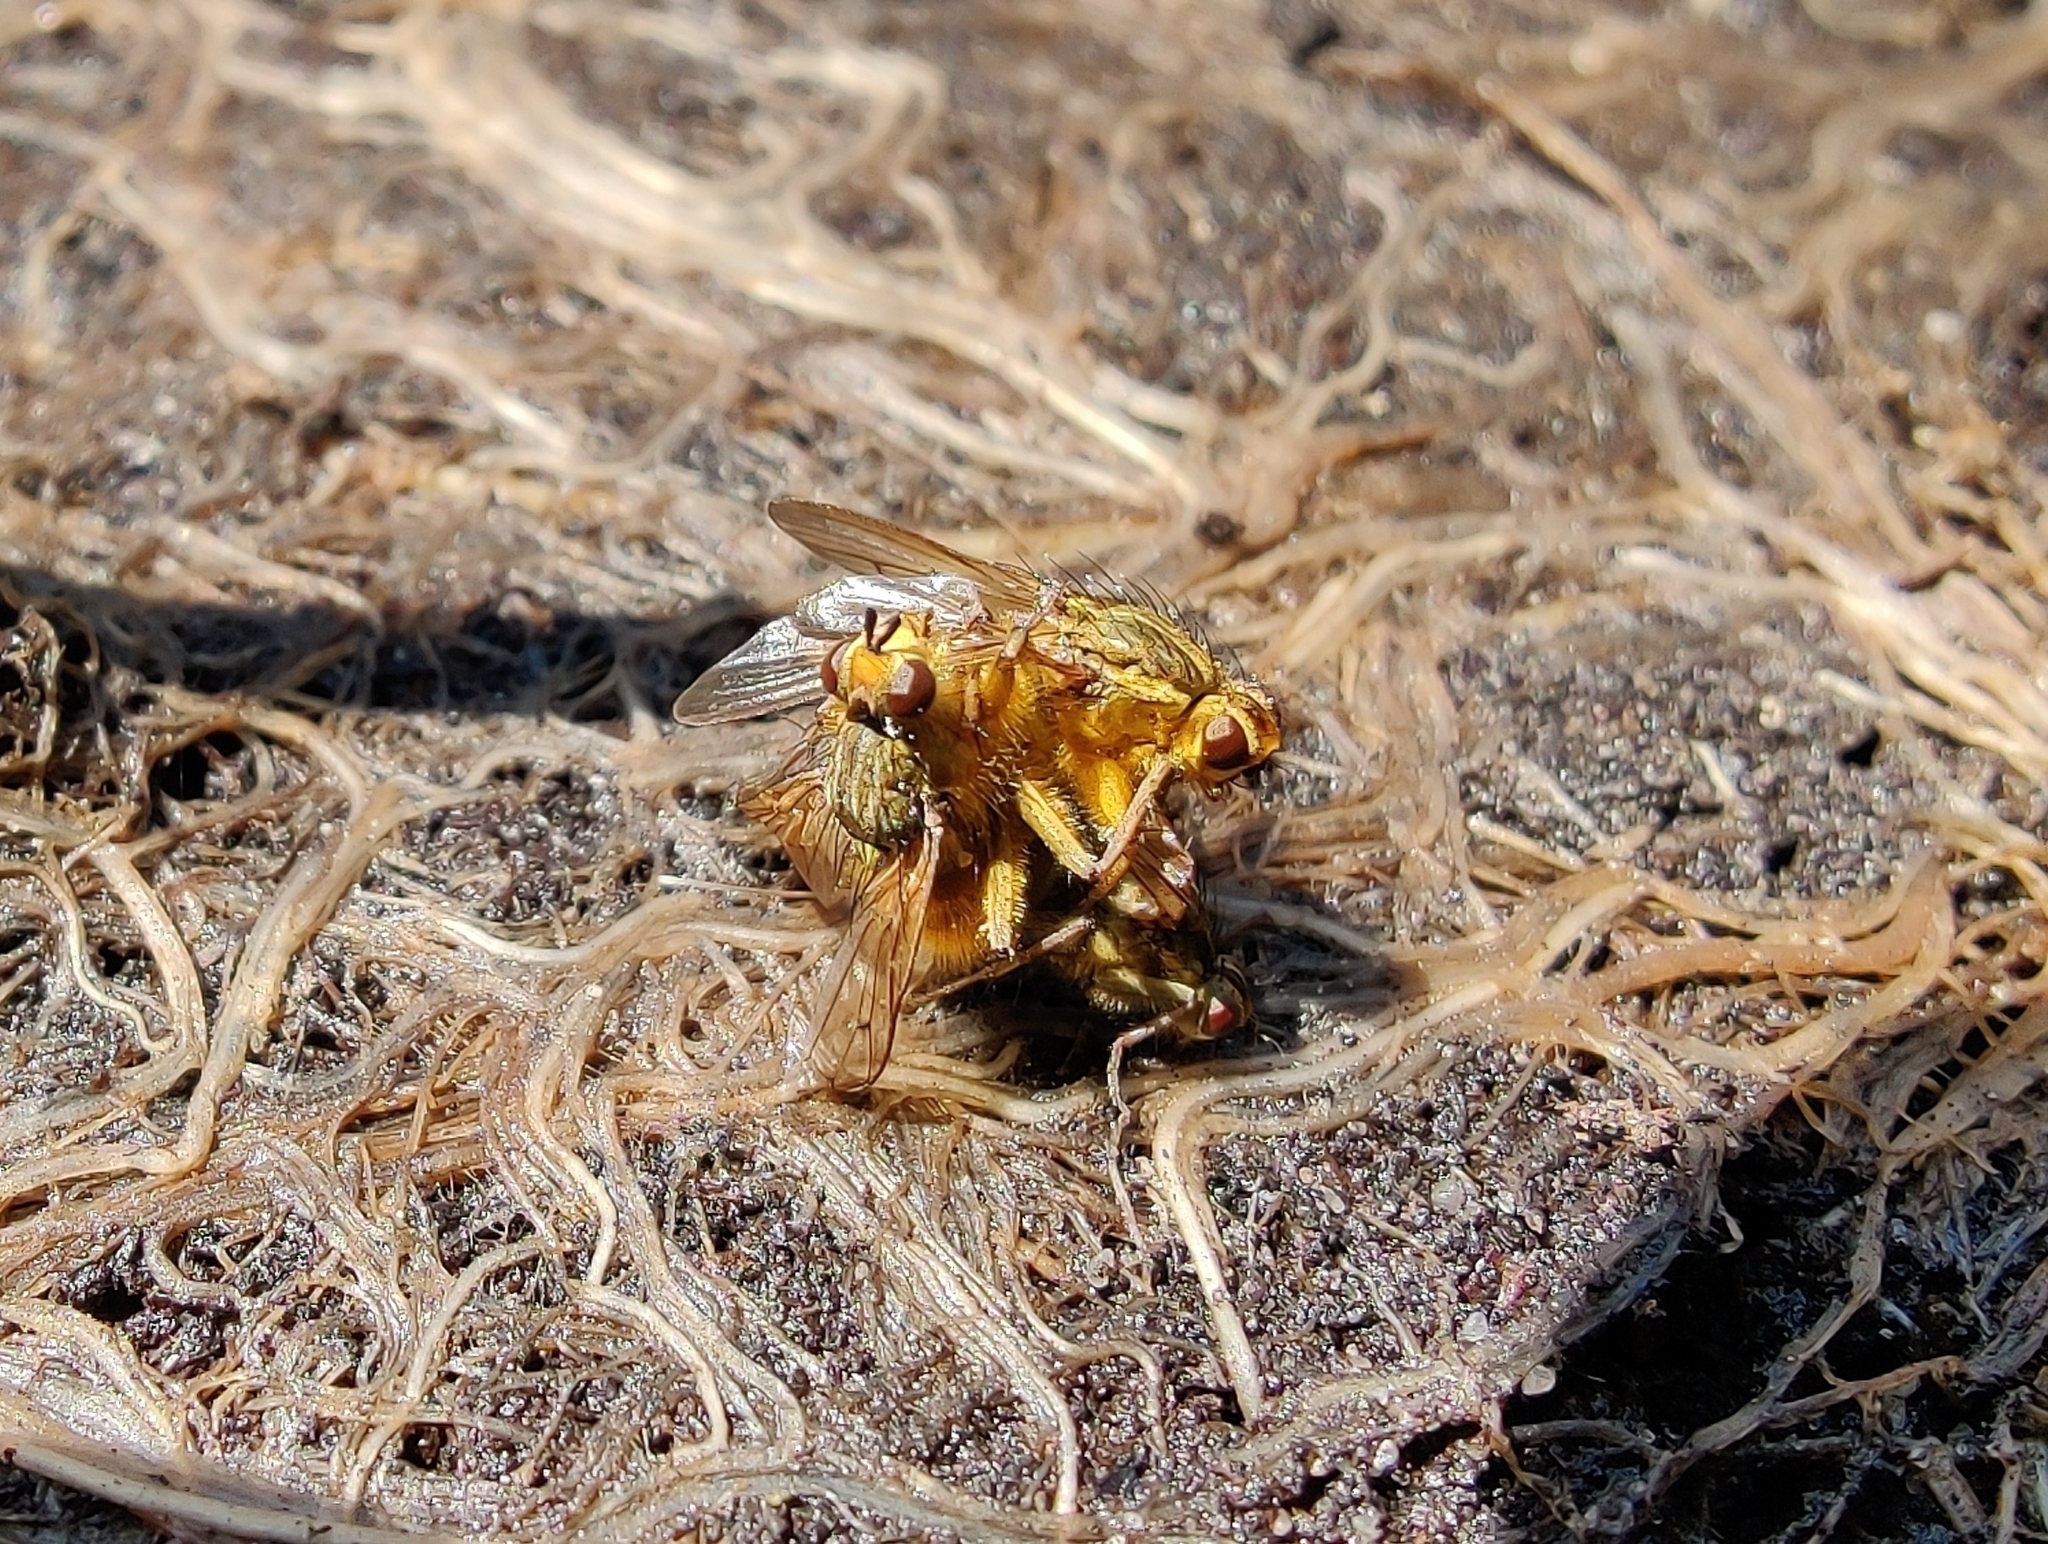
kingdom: Animalia
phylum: Arthropoda
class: Insecta
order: Diptera
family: Scathophagidae
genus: Scathophaga
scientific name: Scathophaga stercoraria
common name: Yellow dung fly
